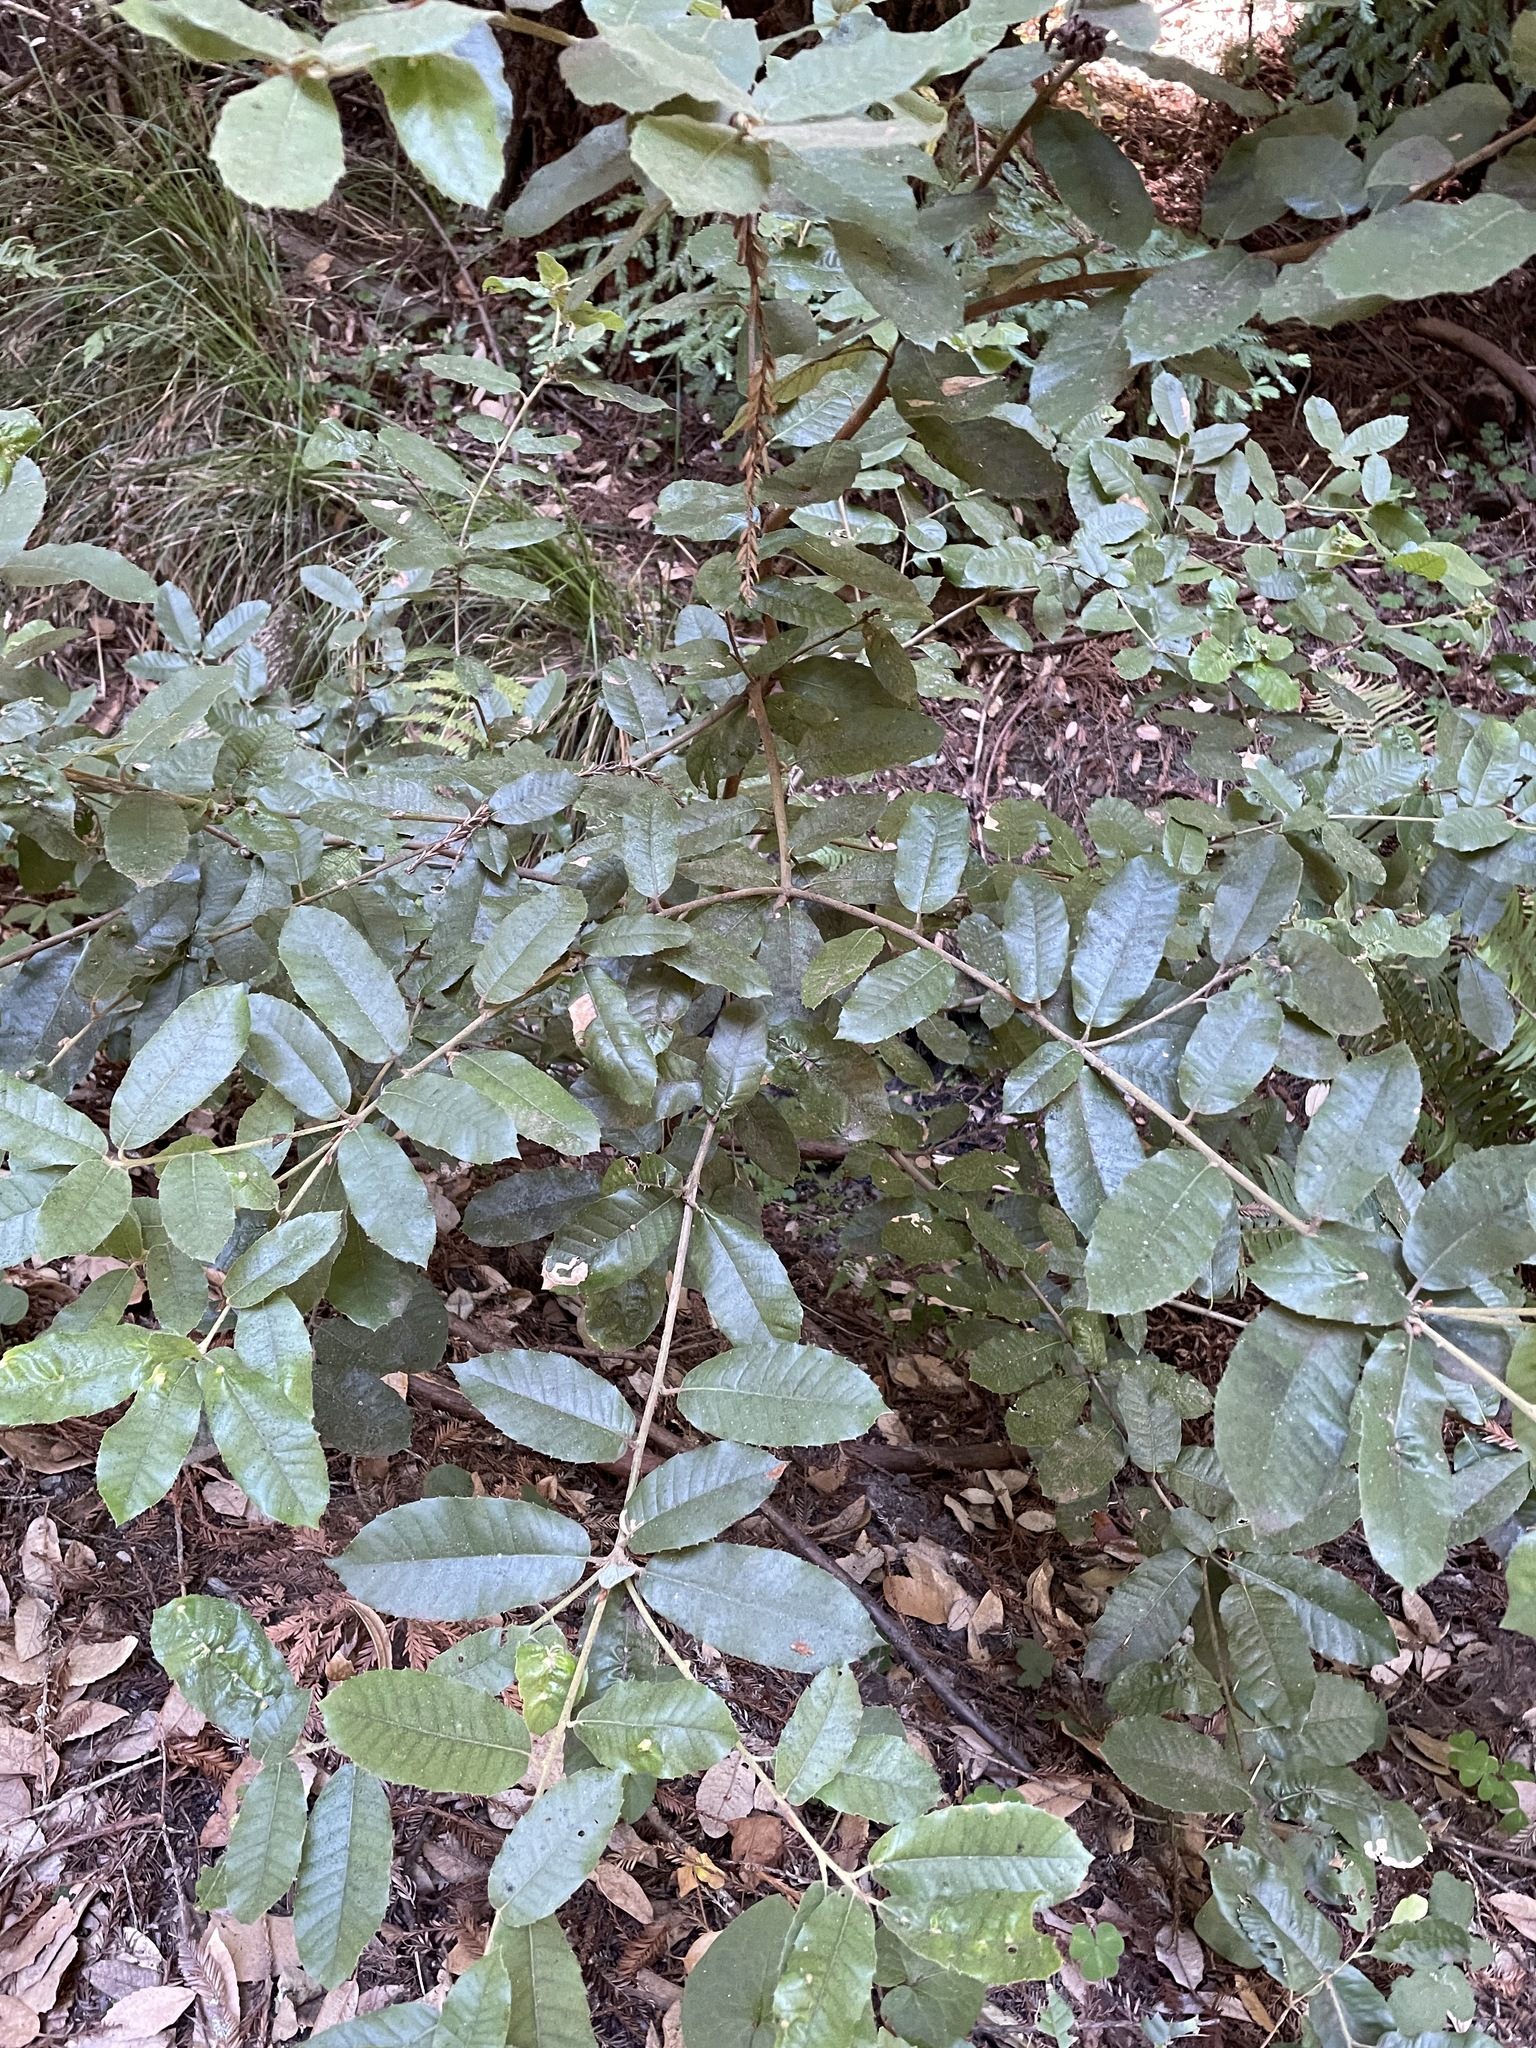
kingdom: Plantae
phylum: Tracheophyta
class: Magnoliopsida
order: Fagales
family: Fagaceae
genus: Notholithocarpus
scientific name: Notholithocarpus densiflorus
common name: Tan bark oak
